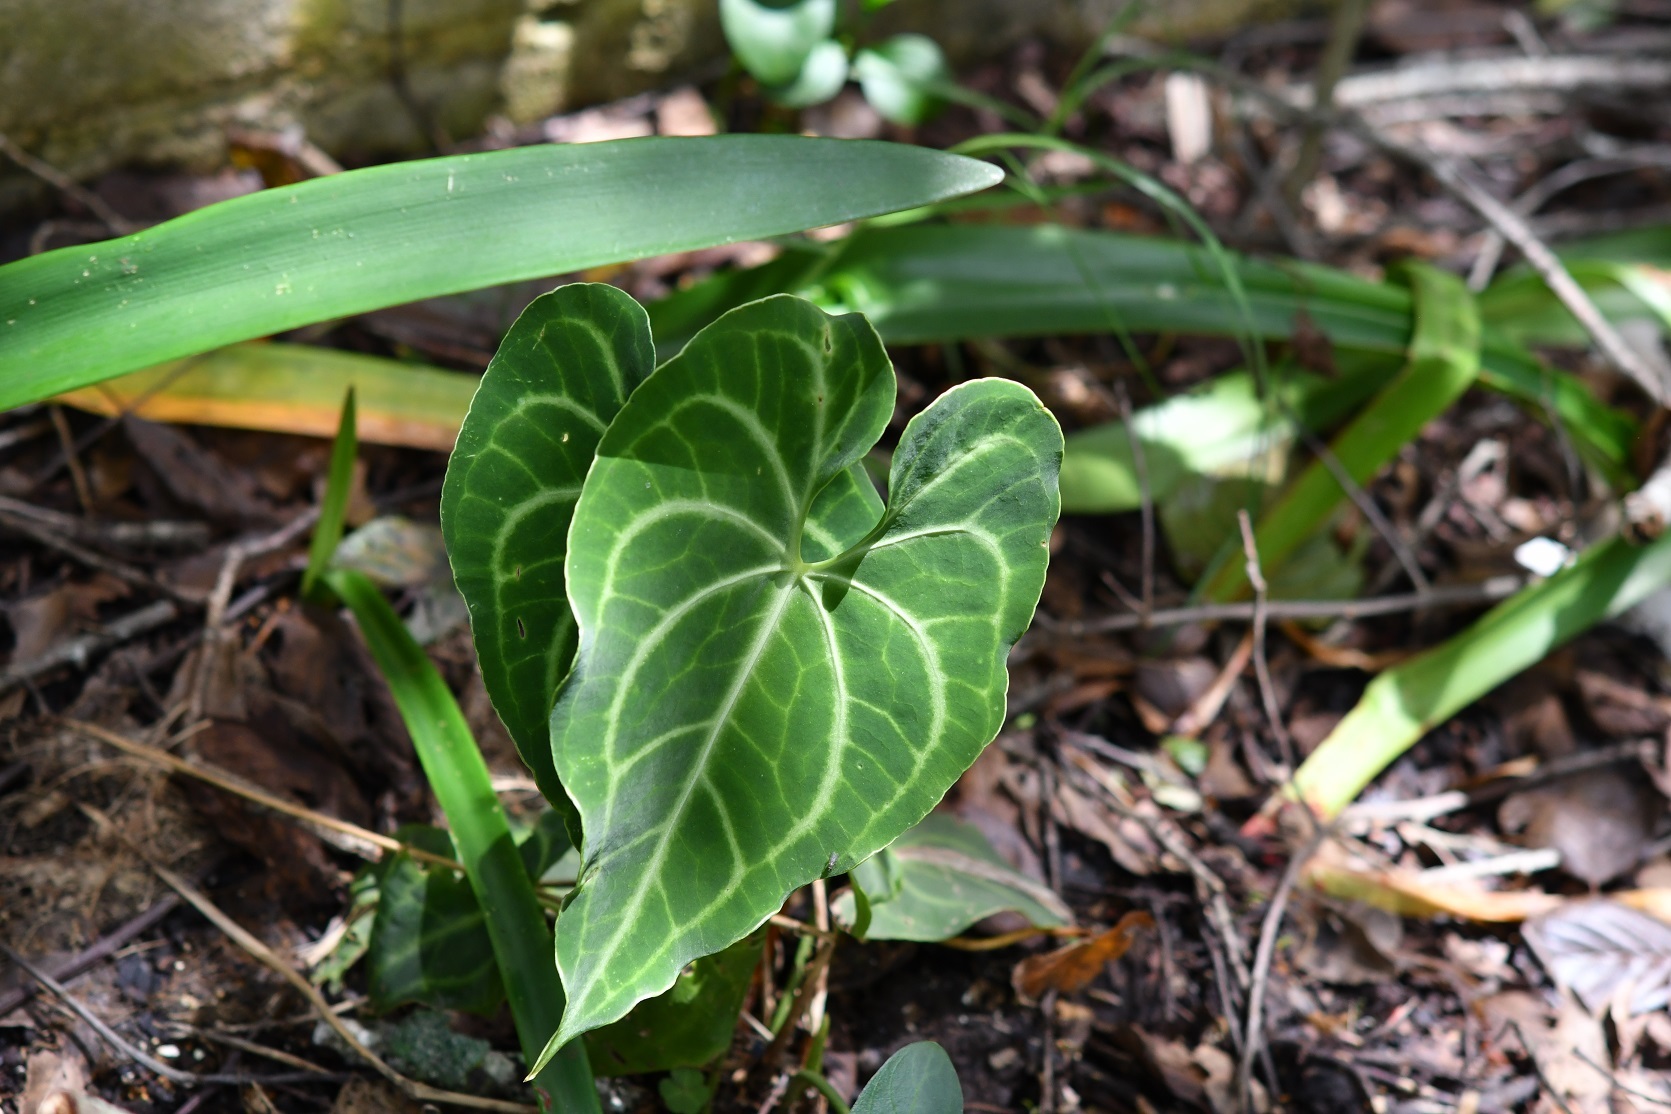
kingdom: Plantae
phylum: Tracheophyta
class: Liliopsida
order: Alismatales
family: Araceae
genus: Anthurium
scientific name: Anthurium leuconeurum
